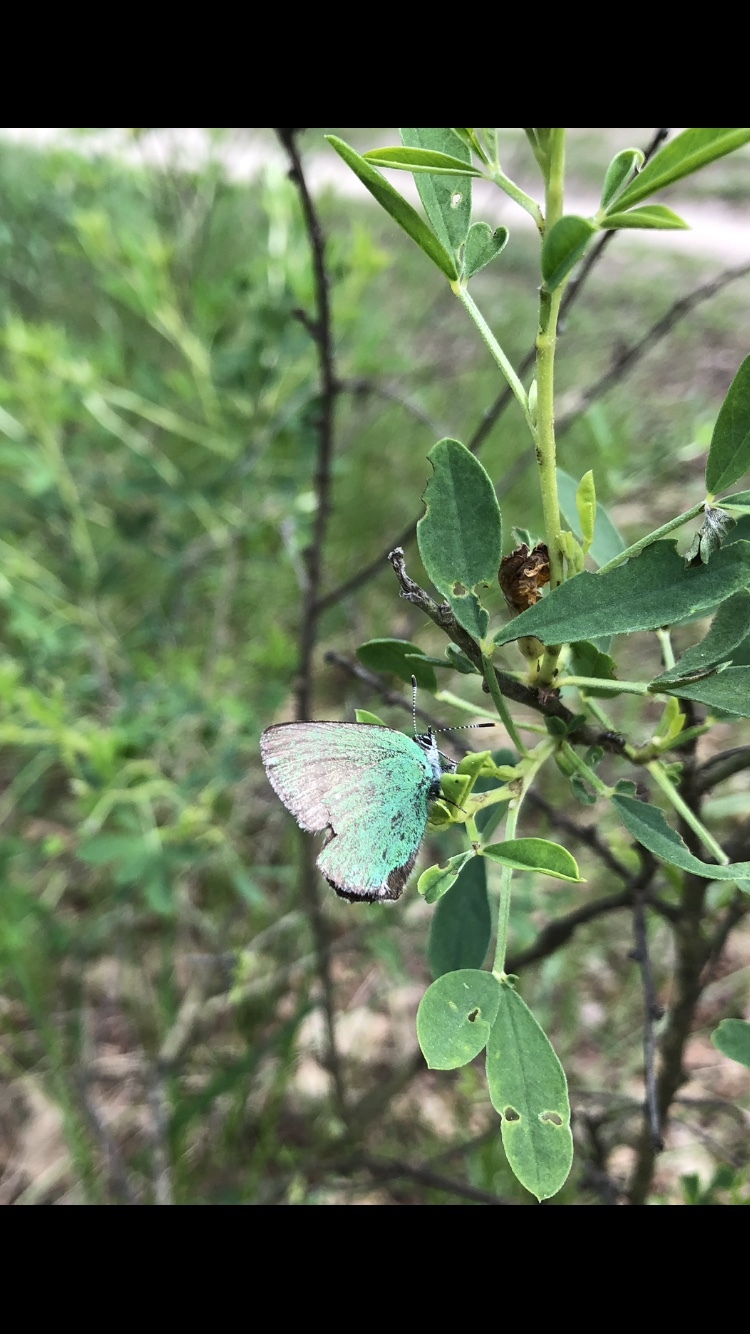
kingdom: Animalia
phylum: Arthropoda
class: Insecta
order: Lepidoptera
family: Lycaenidae
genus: Callophrys
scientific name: Callophrys rubi
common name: Green hairstreak
